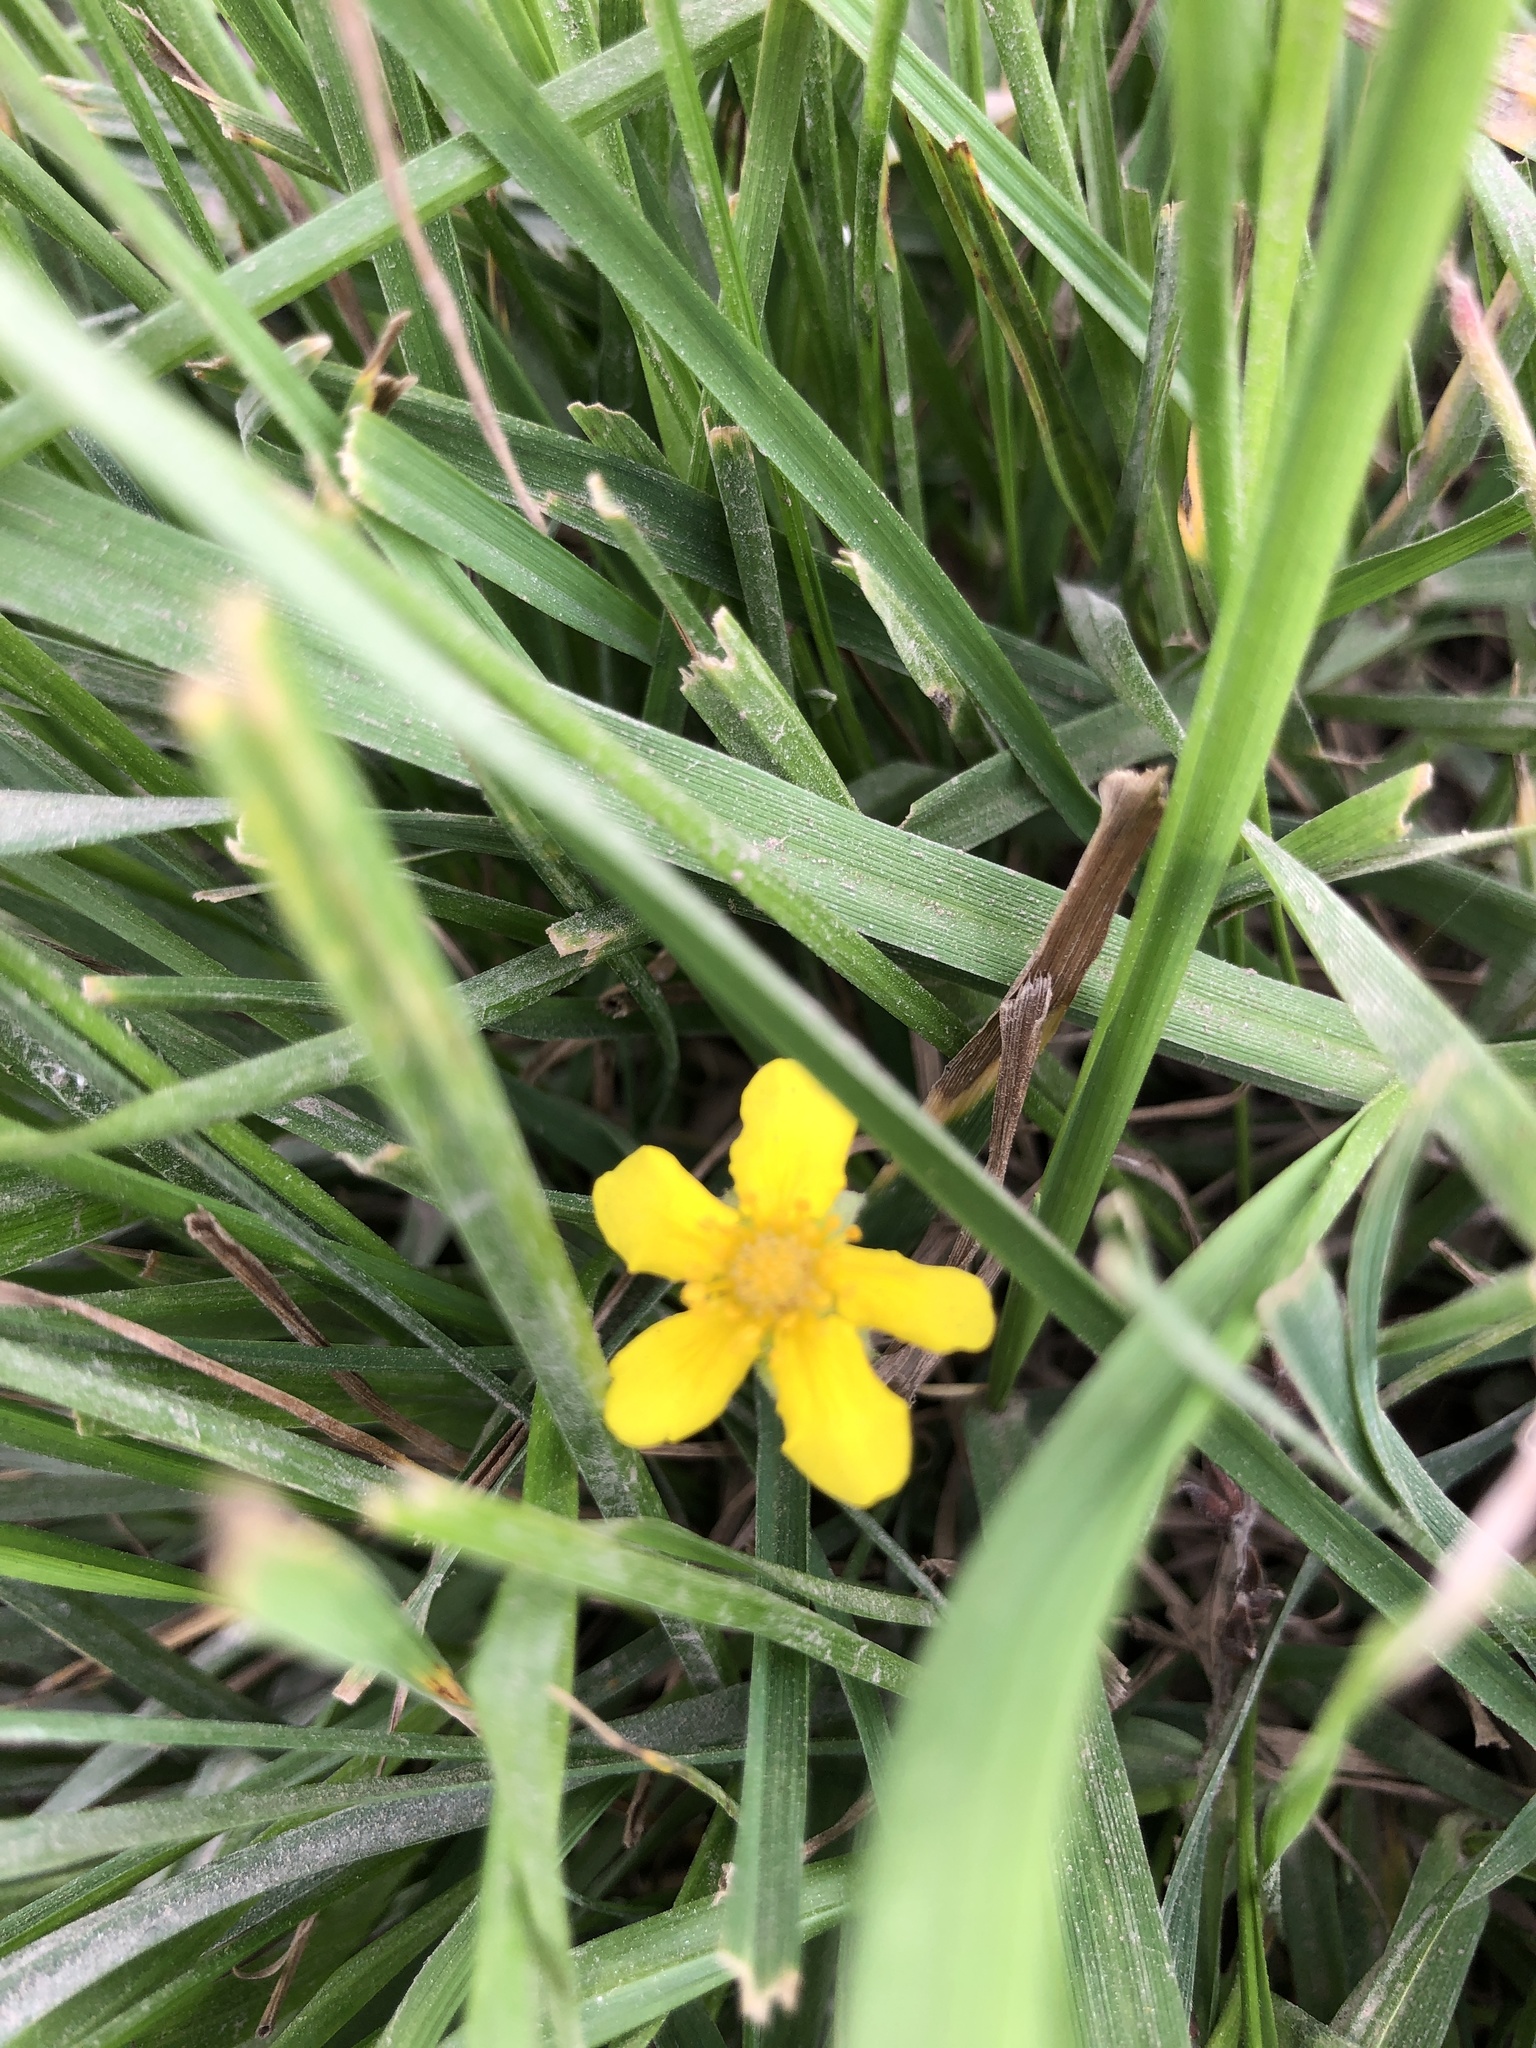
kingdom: Plantae
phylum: Tracheophyta
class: Magnoliopsida
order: Rosales
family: Rosaceae
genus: Argentina
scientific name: Argentina anserina
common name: Common silverweed
